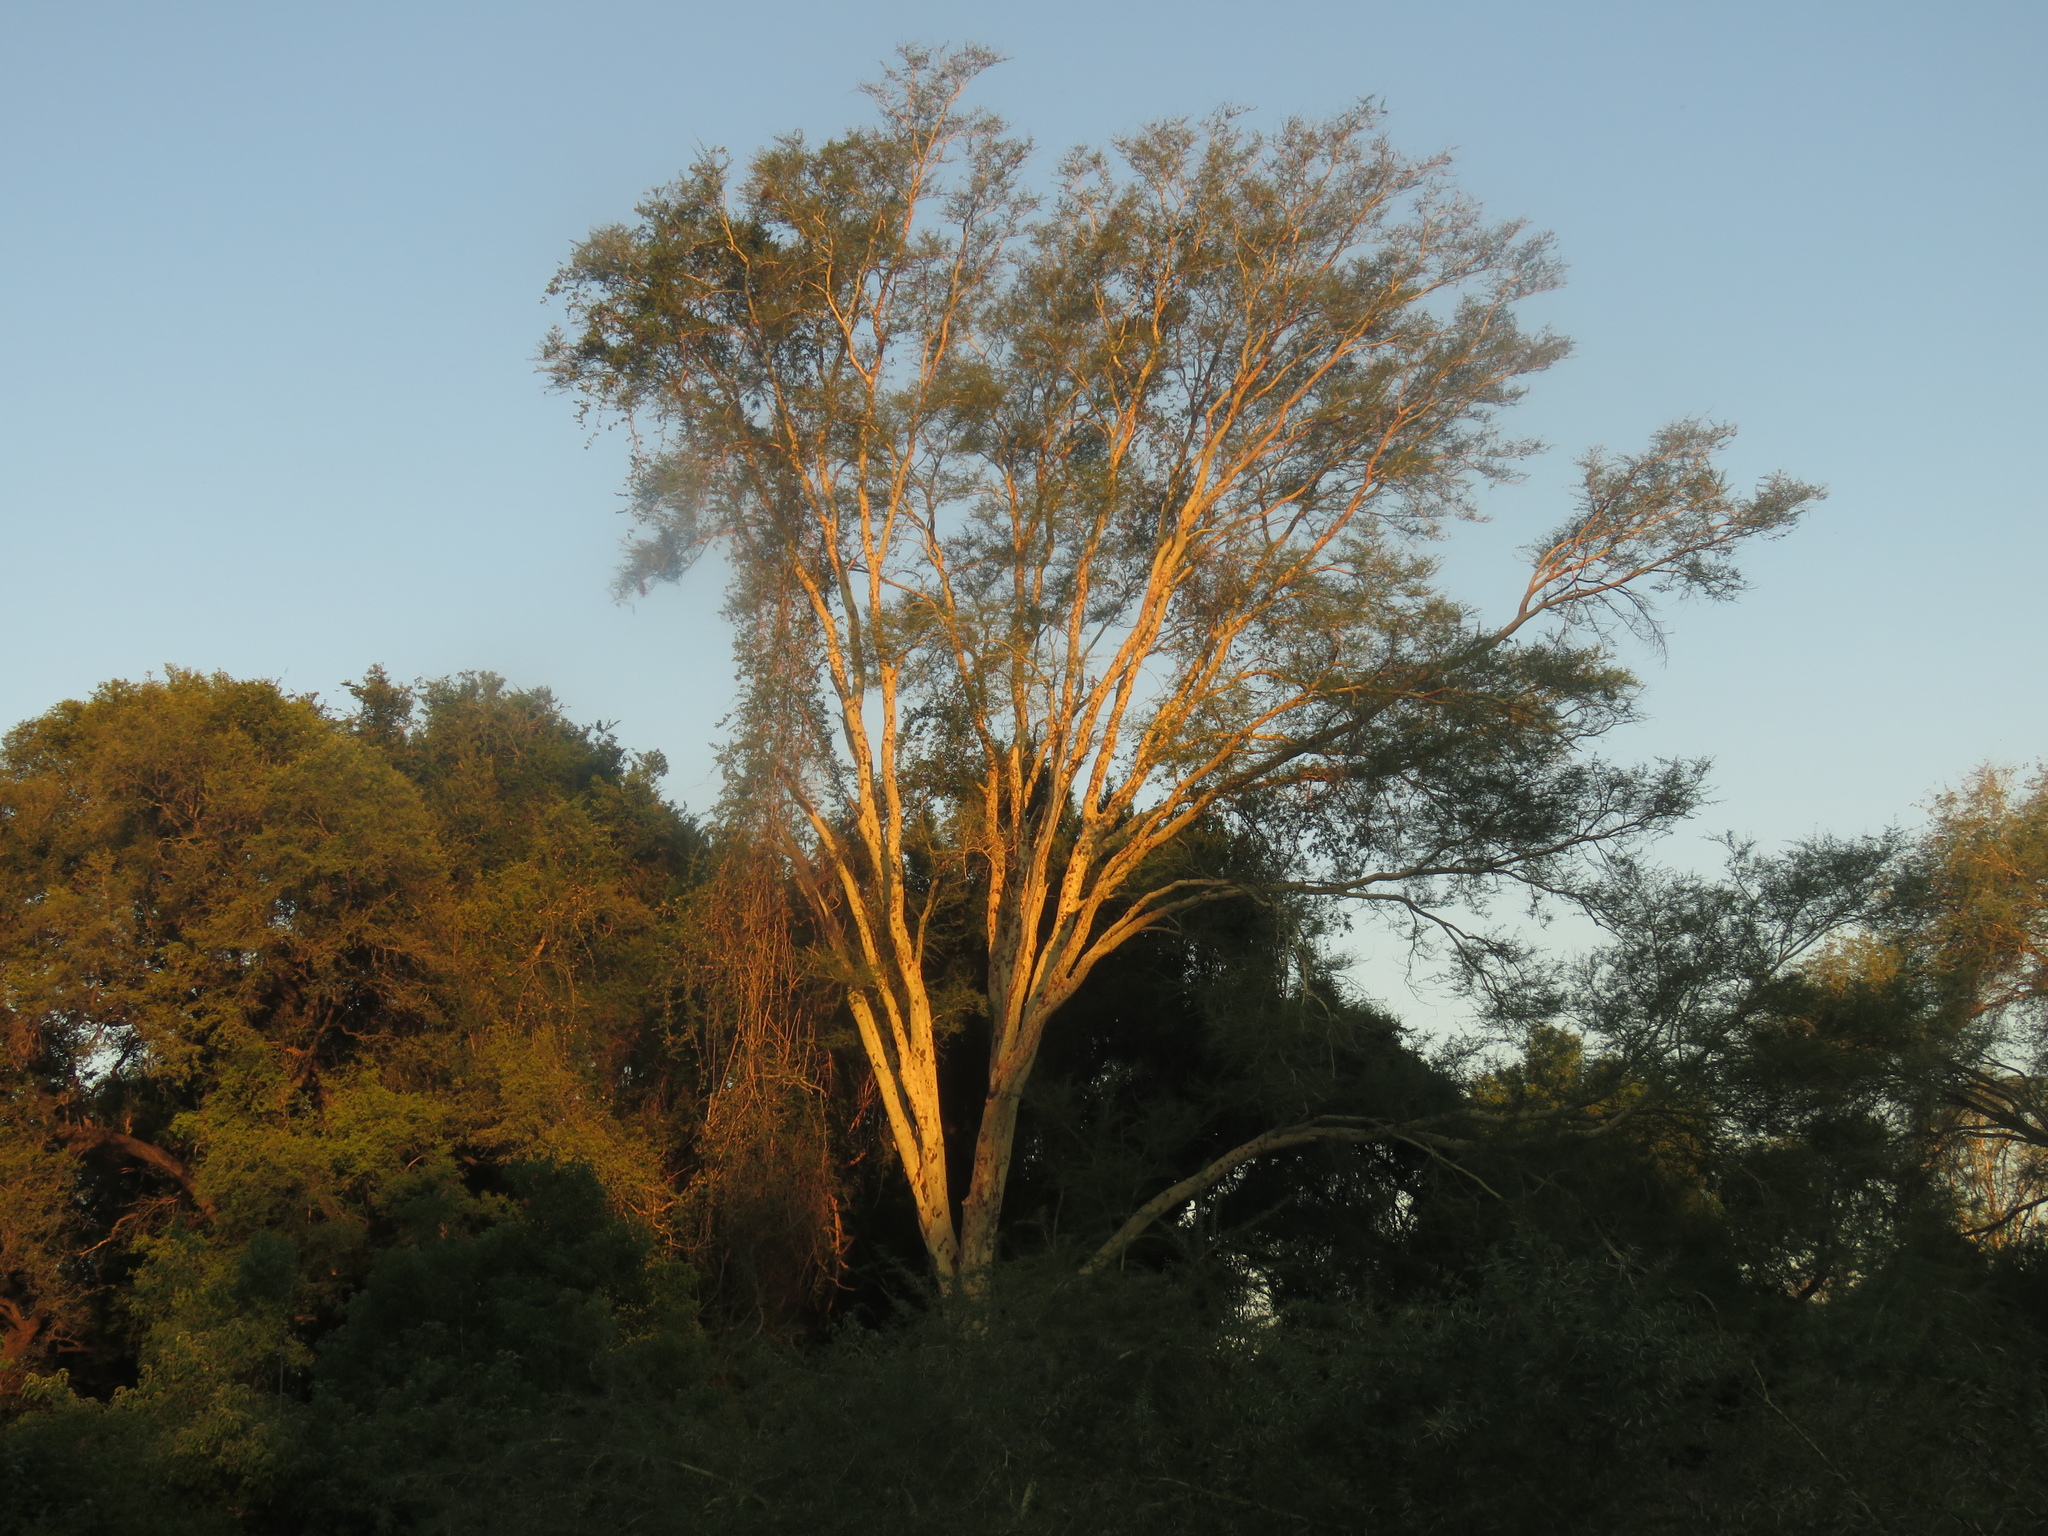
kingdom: Plantae
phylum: Tracheophyta
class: Magnoliopsida
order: Fabales
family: Fabaceae
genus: Vachellia
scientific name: Vachellia xanthophloea
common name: Fever tree
